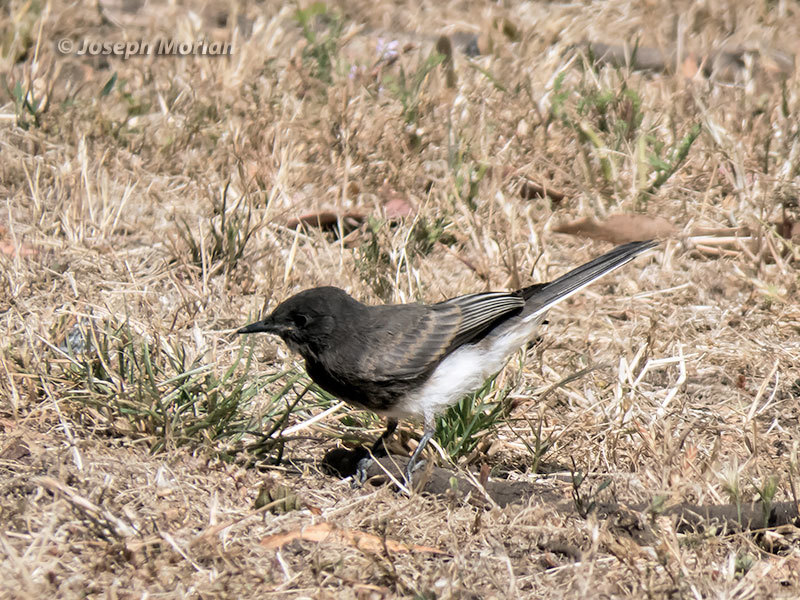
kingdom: Animalia
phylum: Chordata
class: Aves
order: Passeriformes
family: Tyrannidae
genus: Sayornis
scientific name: Sayornis nigricans
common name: Black phoebe
